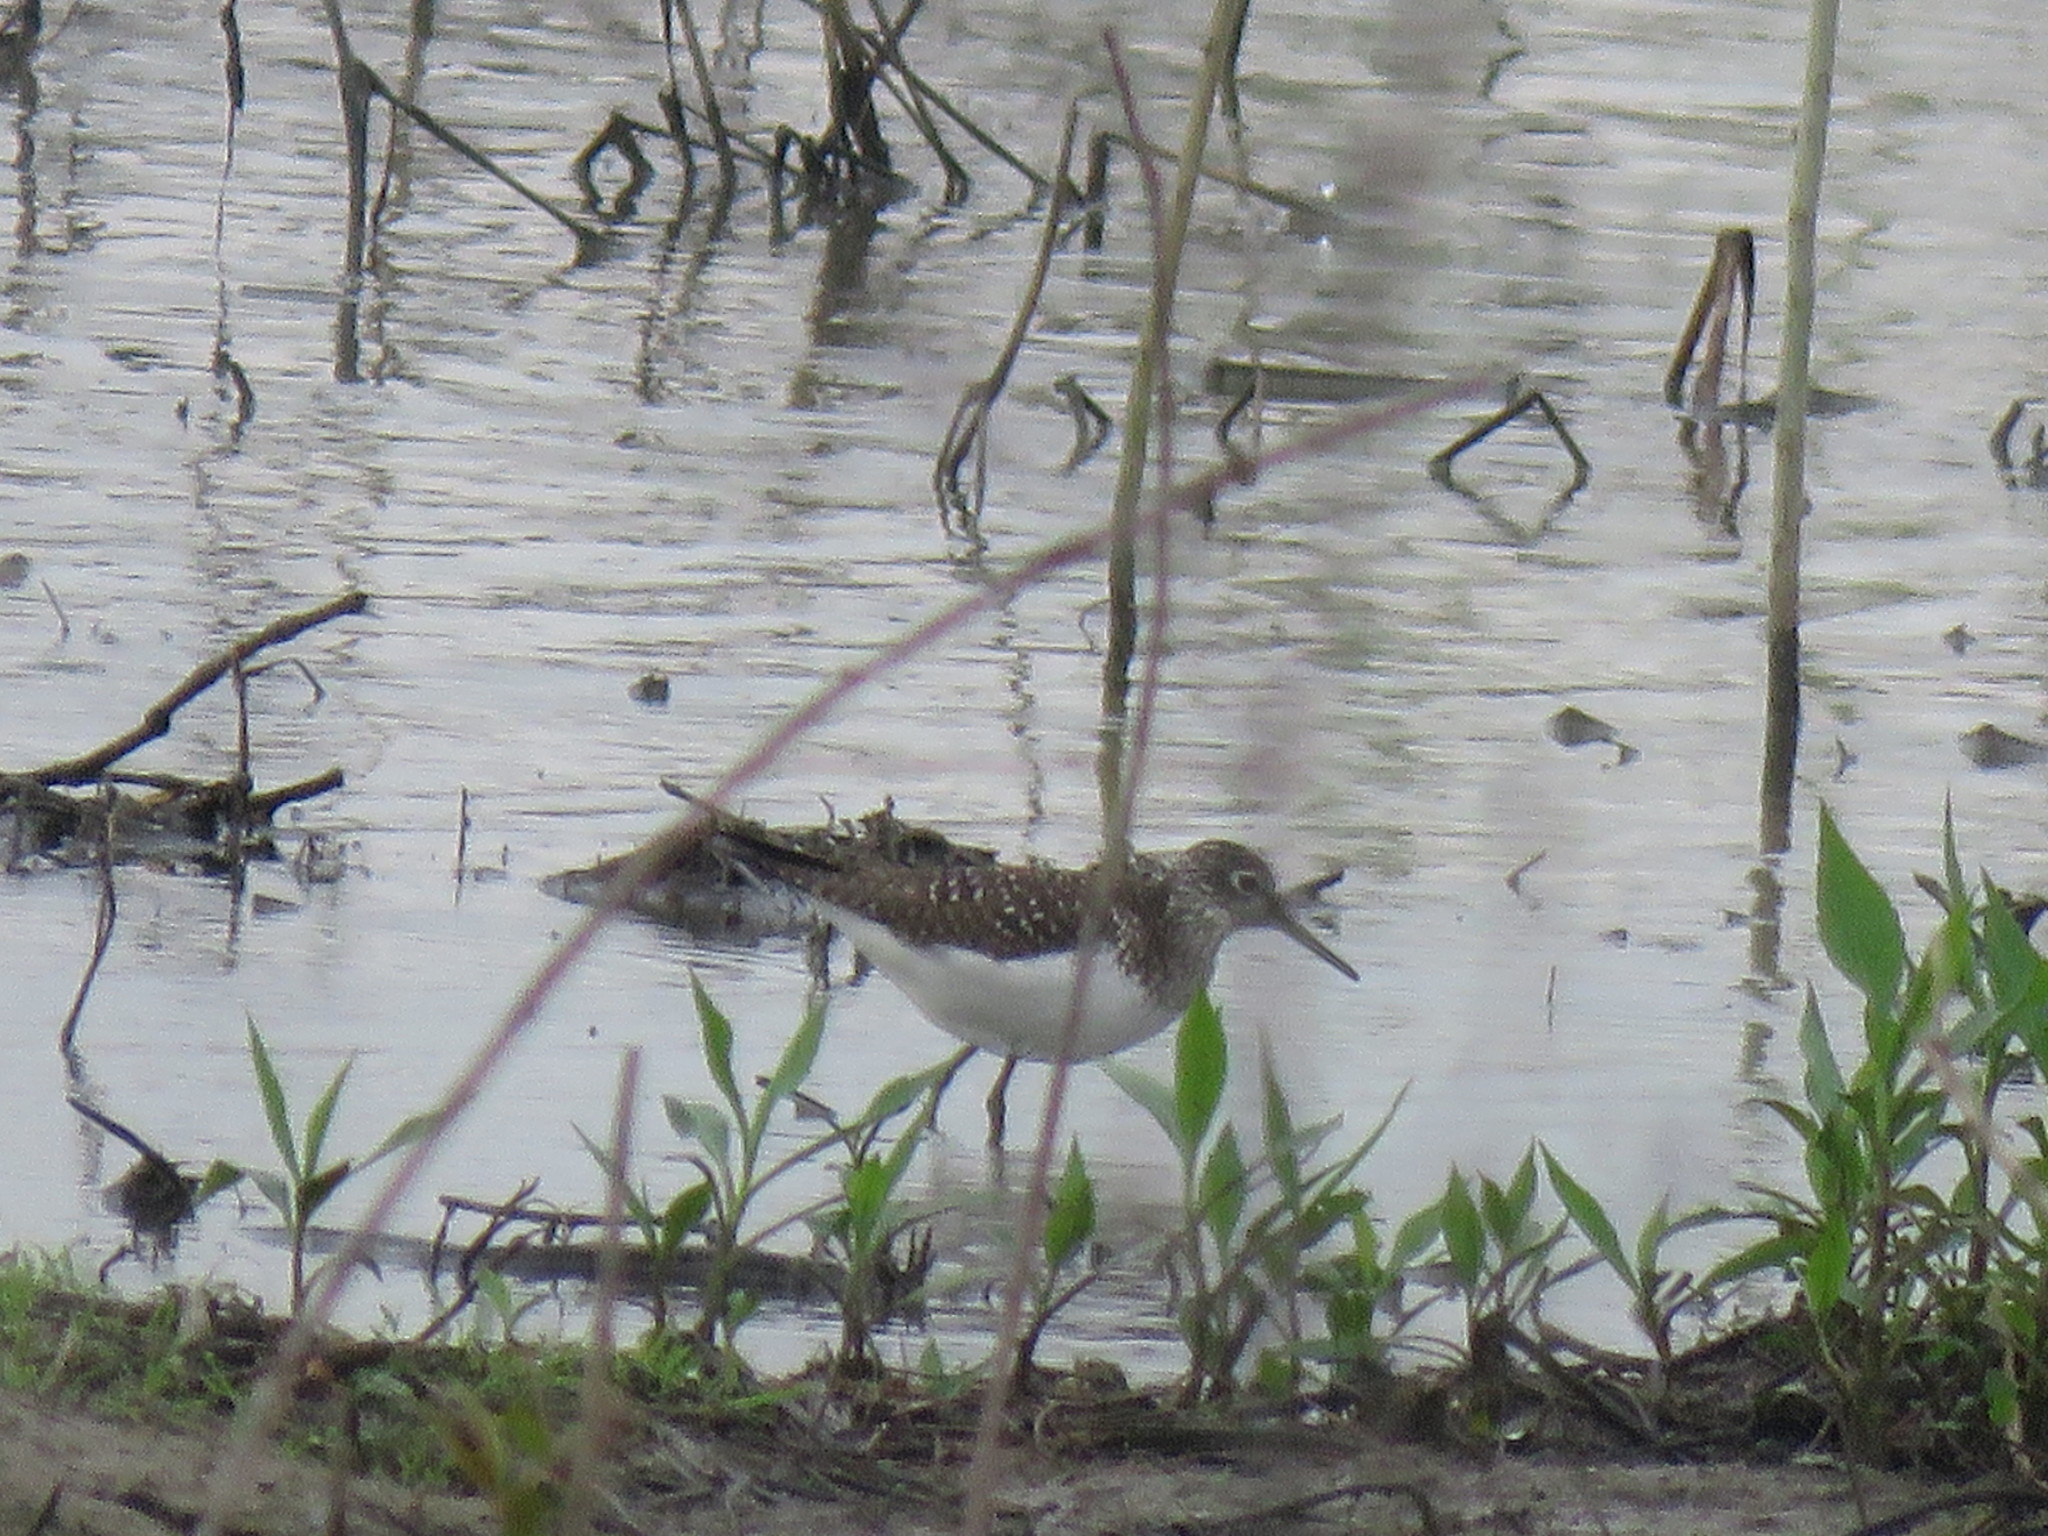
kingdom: Animalia
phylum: Chordata
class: Aves
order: Charadriiformes
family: Scolopacidae
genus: Tringa
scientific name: Tringa solitaria
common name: Solitary sandpiper
